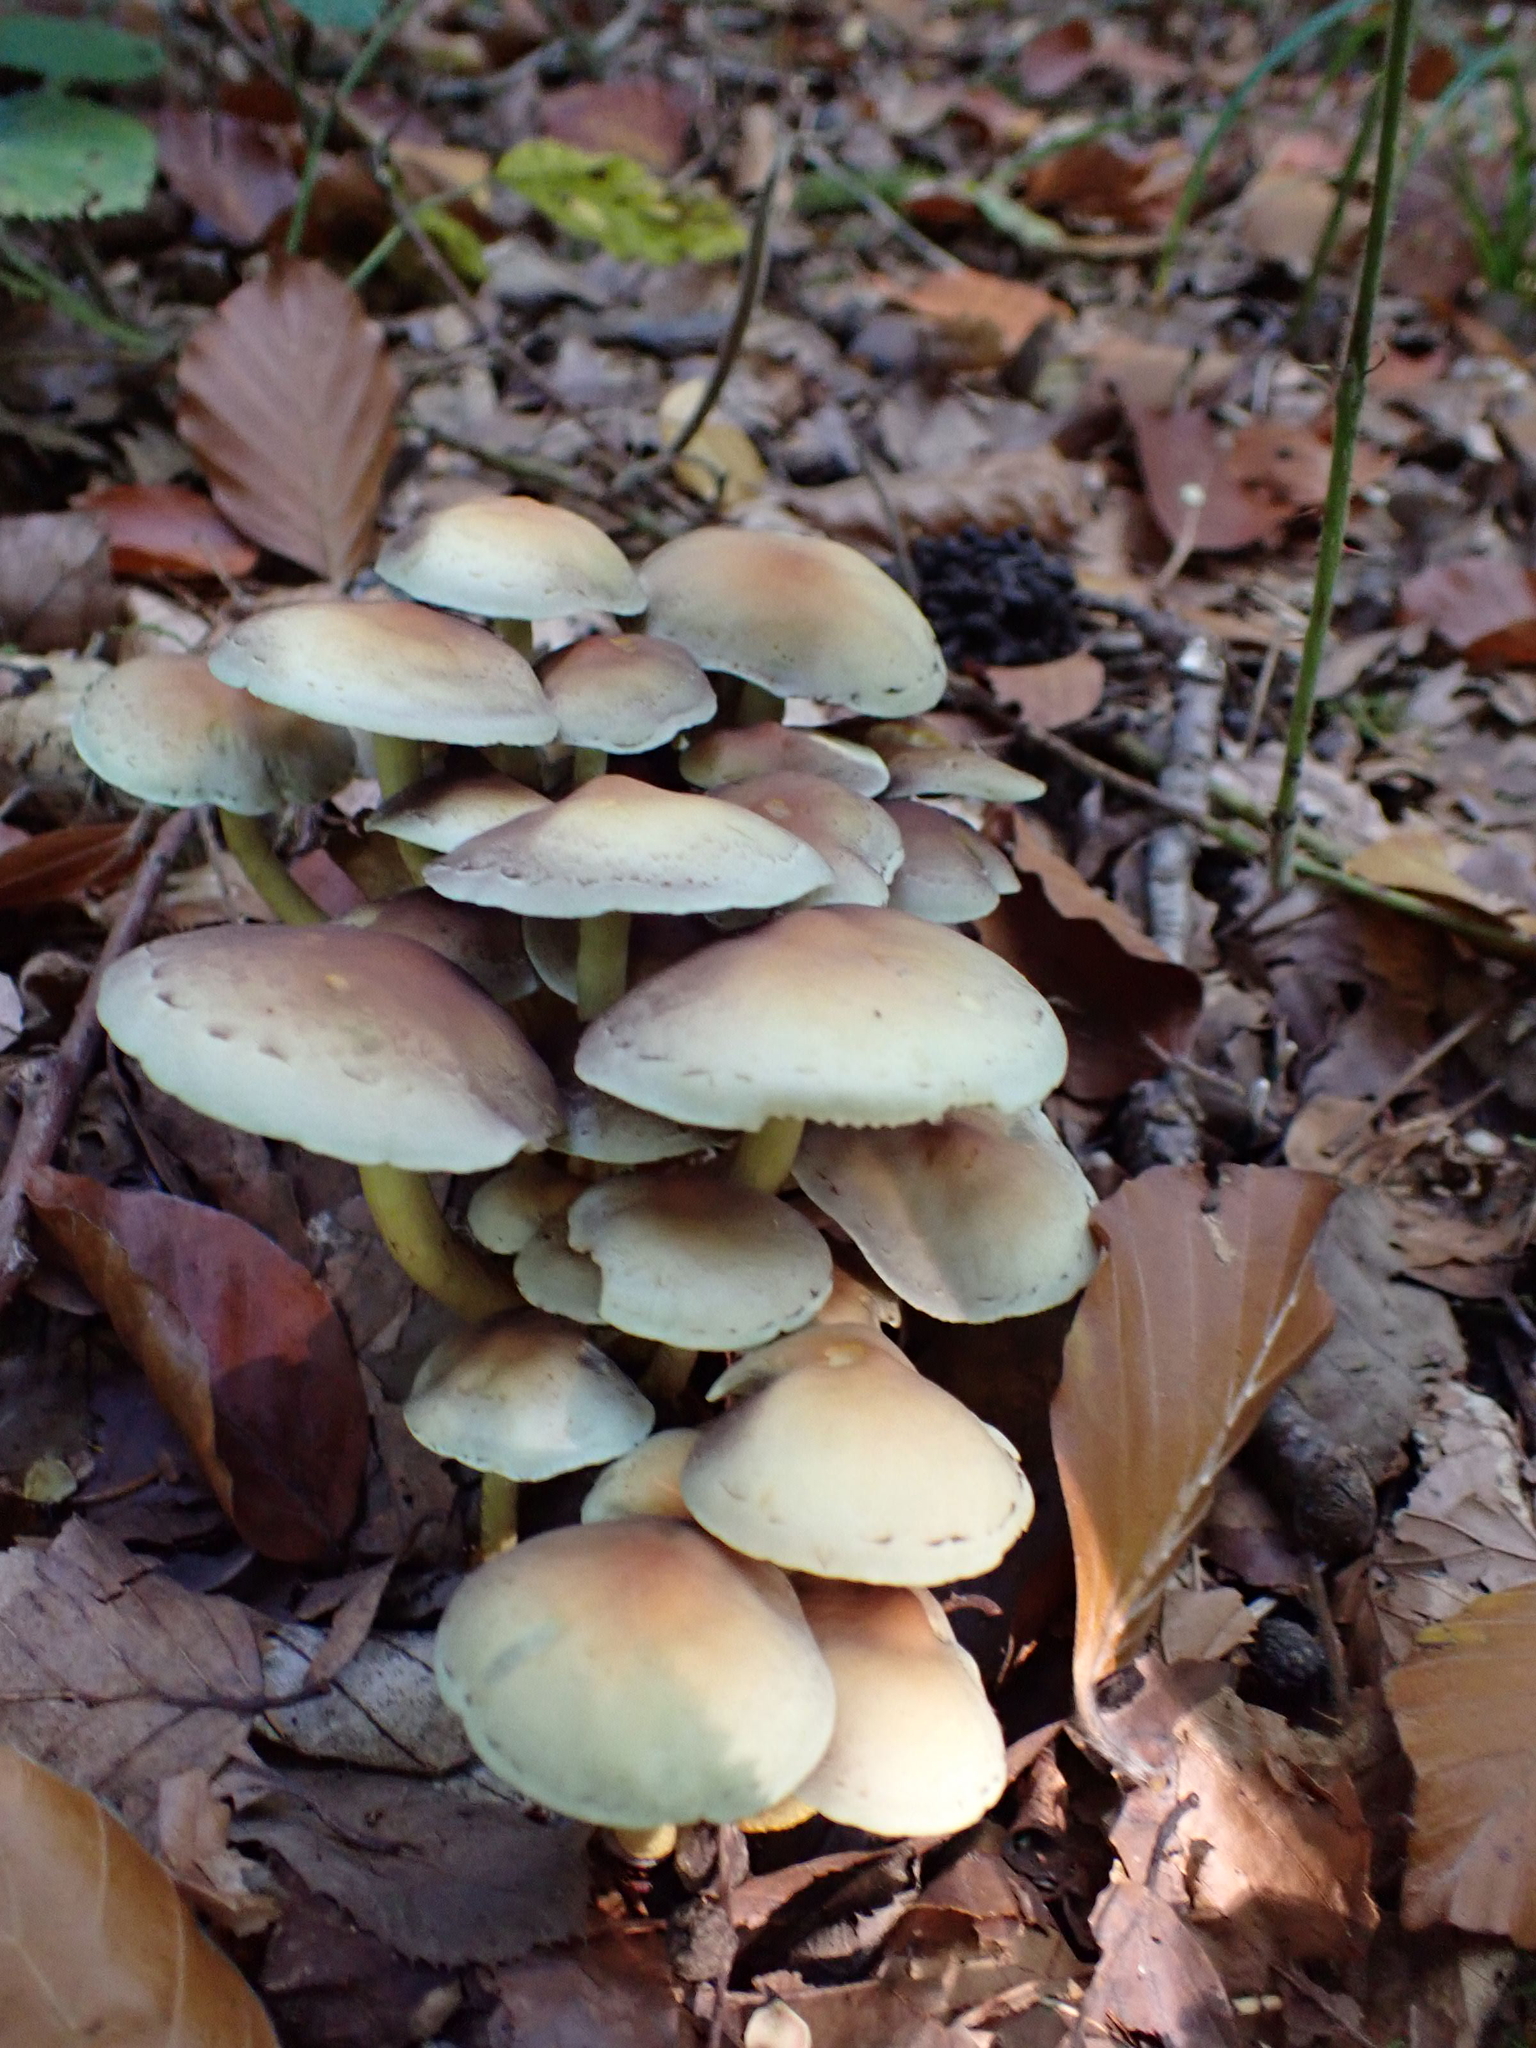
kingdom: Fungi
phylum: Basidiomycota
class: Agaricomycetes
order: Agaricales
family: Strophariaceae
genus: Hypholoma
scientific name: Hypholoma fasciculare
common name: Sulphur tuft
